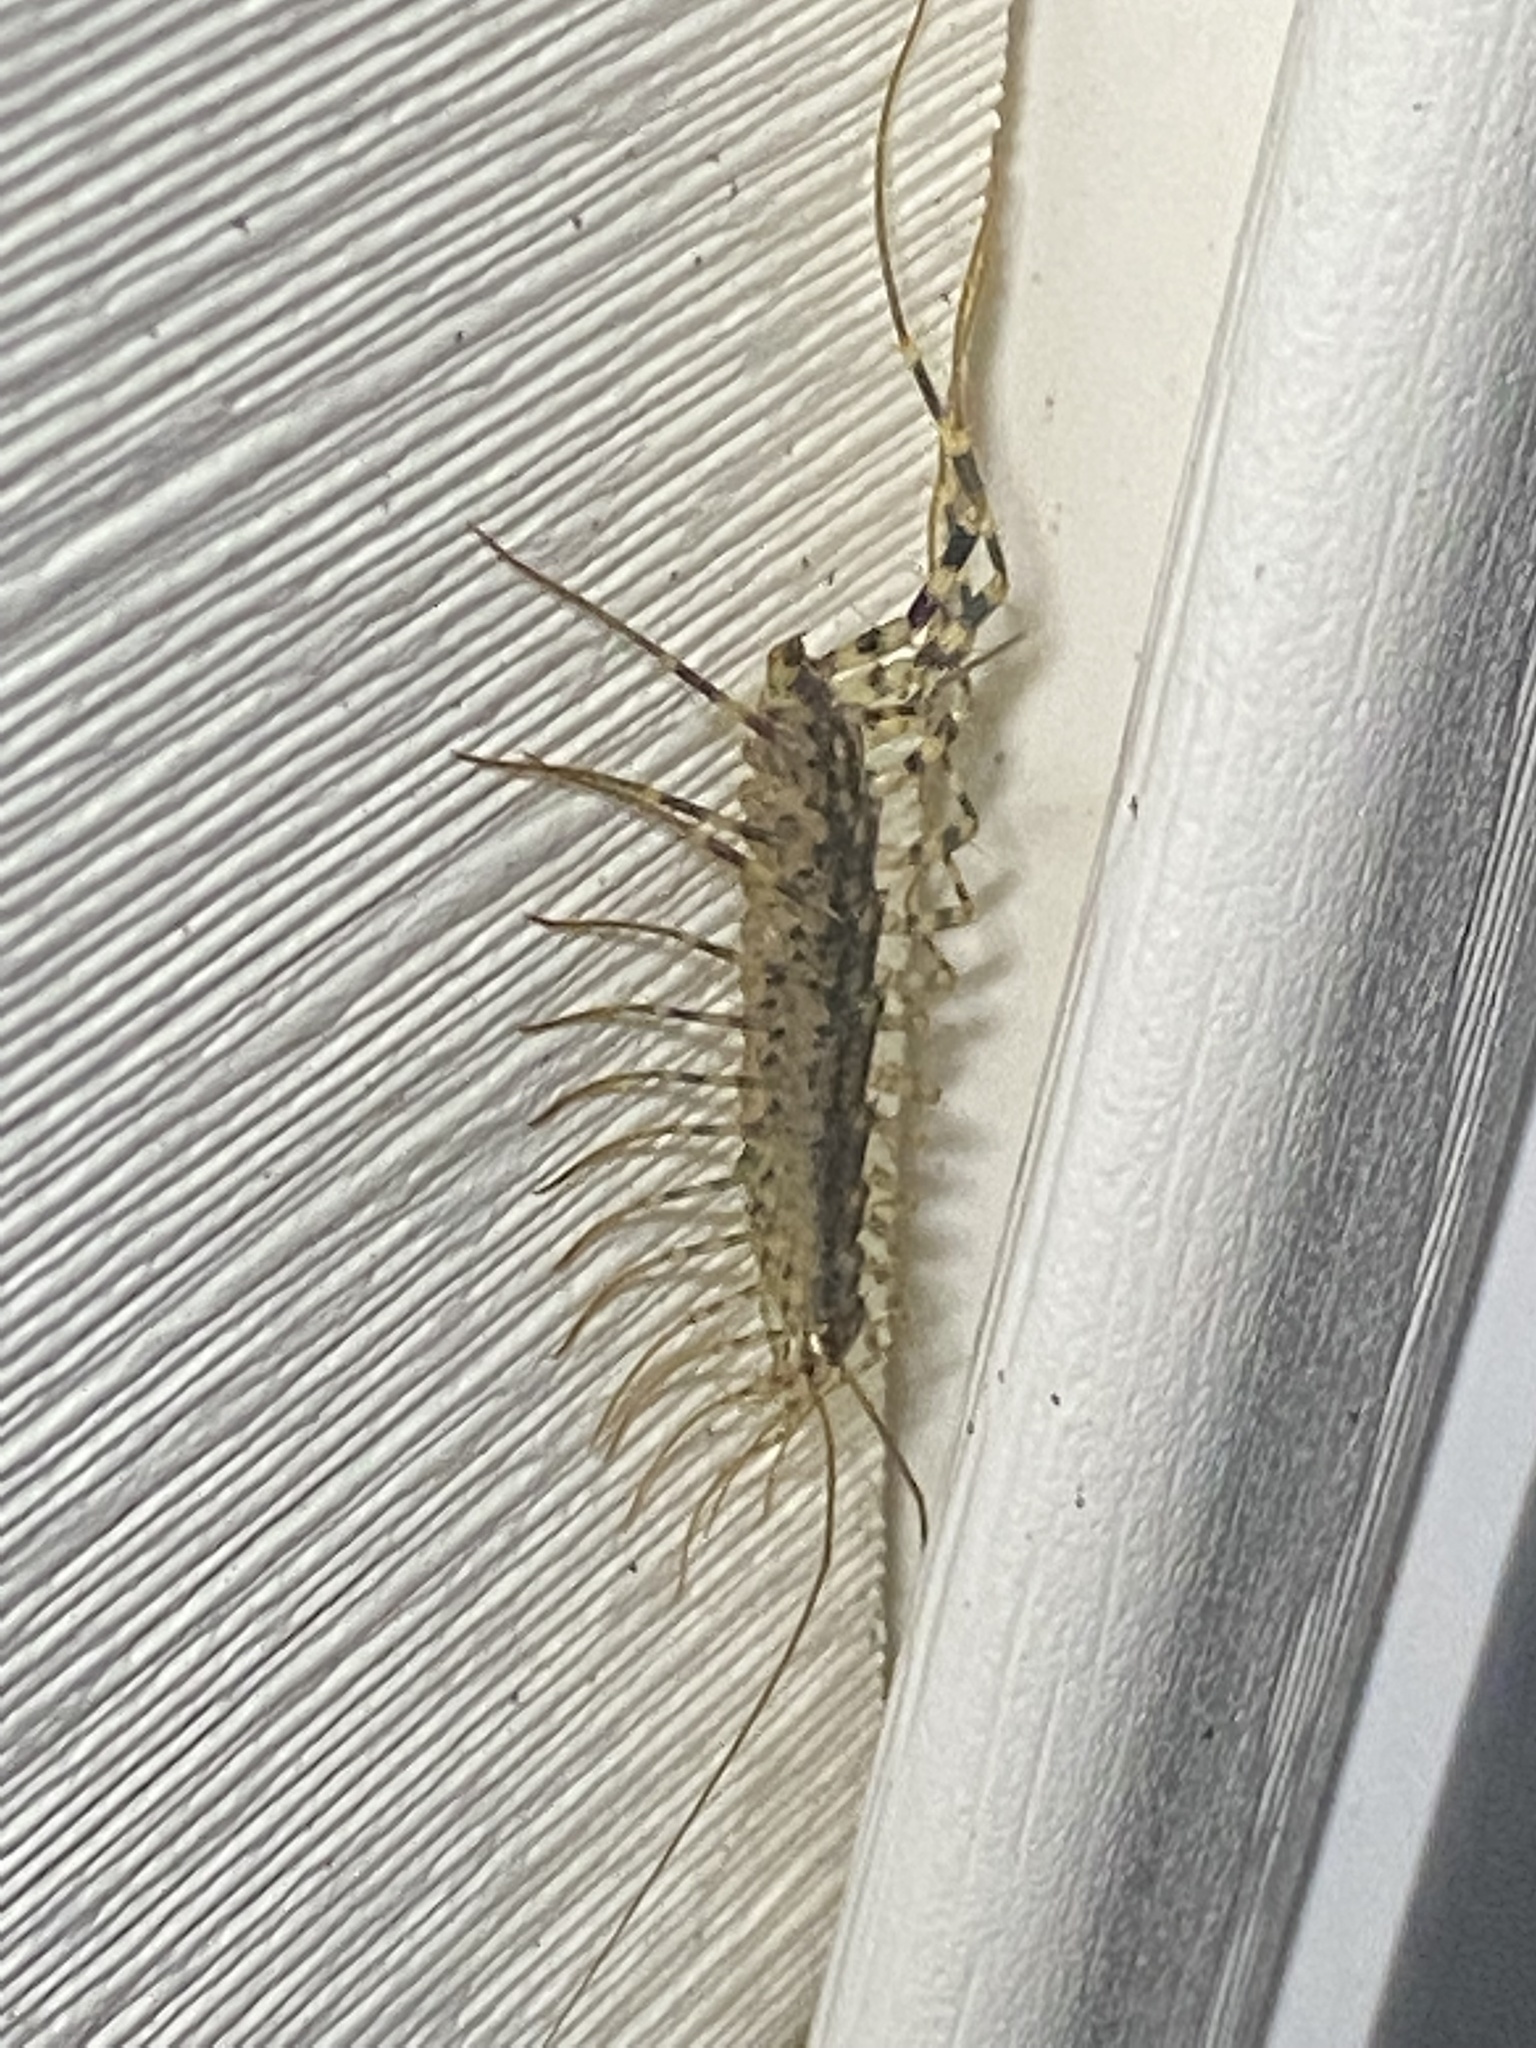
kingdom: Animalia
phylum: Arthropoda
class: Chilopoda
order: Scutigeromorpha
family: Scutigeridae
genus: Scutigera
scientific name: Scutigera coleoptrata
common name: House centipede
